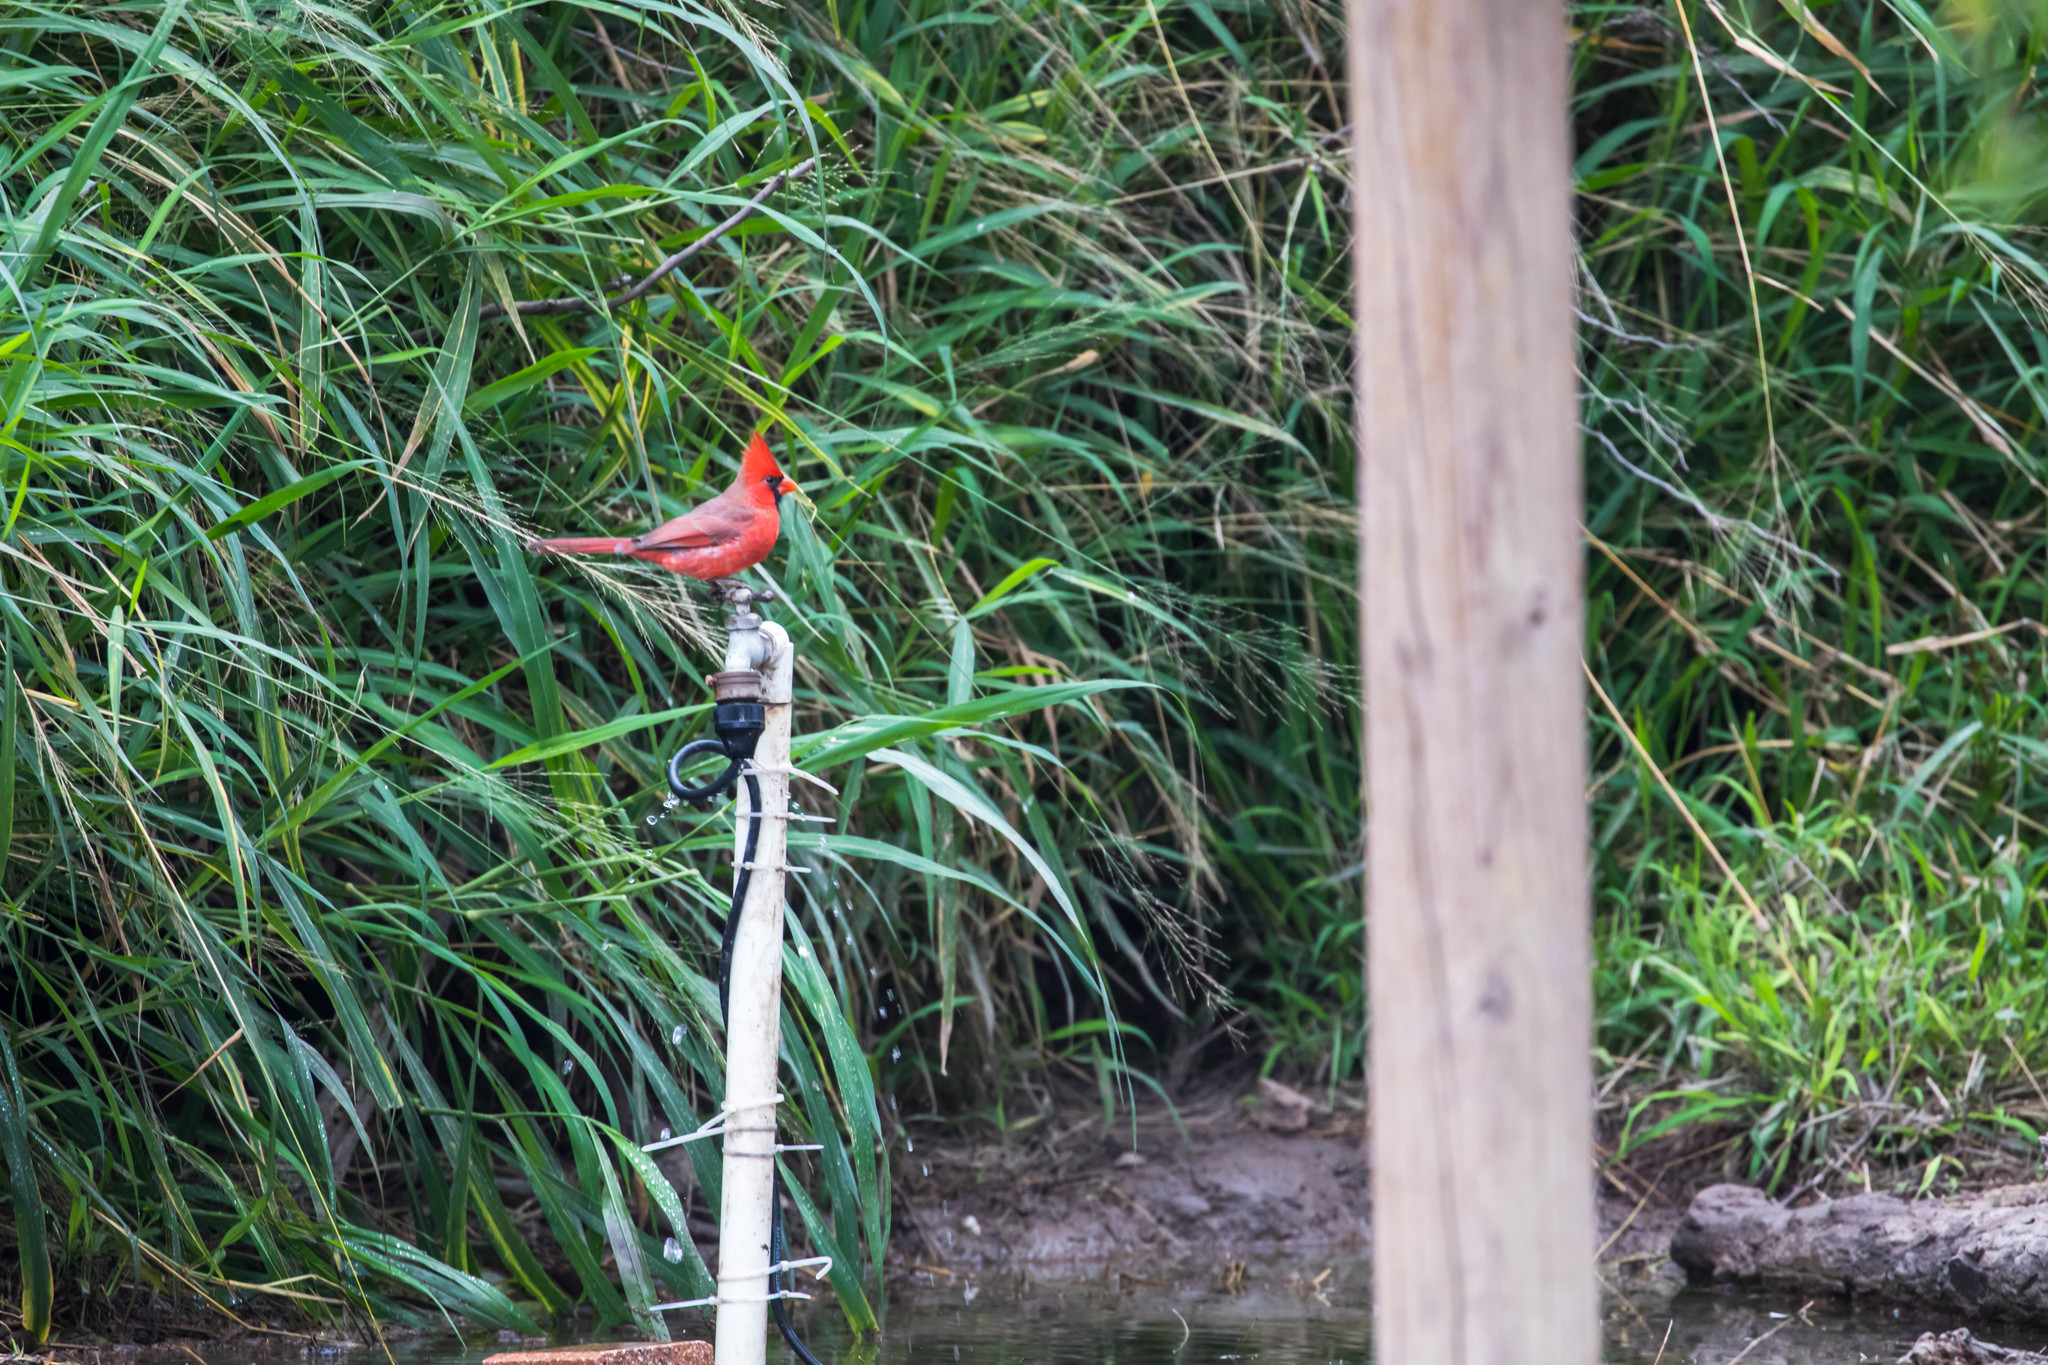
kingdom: Animalia
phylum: Chordata
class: Aves
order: Passeriformes
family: Cardinalidae
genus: Cardinalis
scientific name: Cardinalis cardinalis
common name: Northern cardinal
